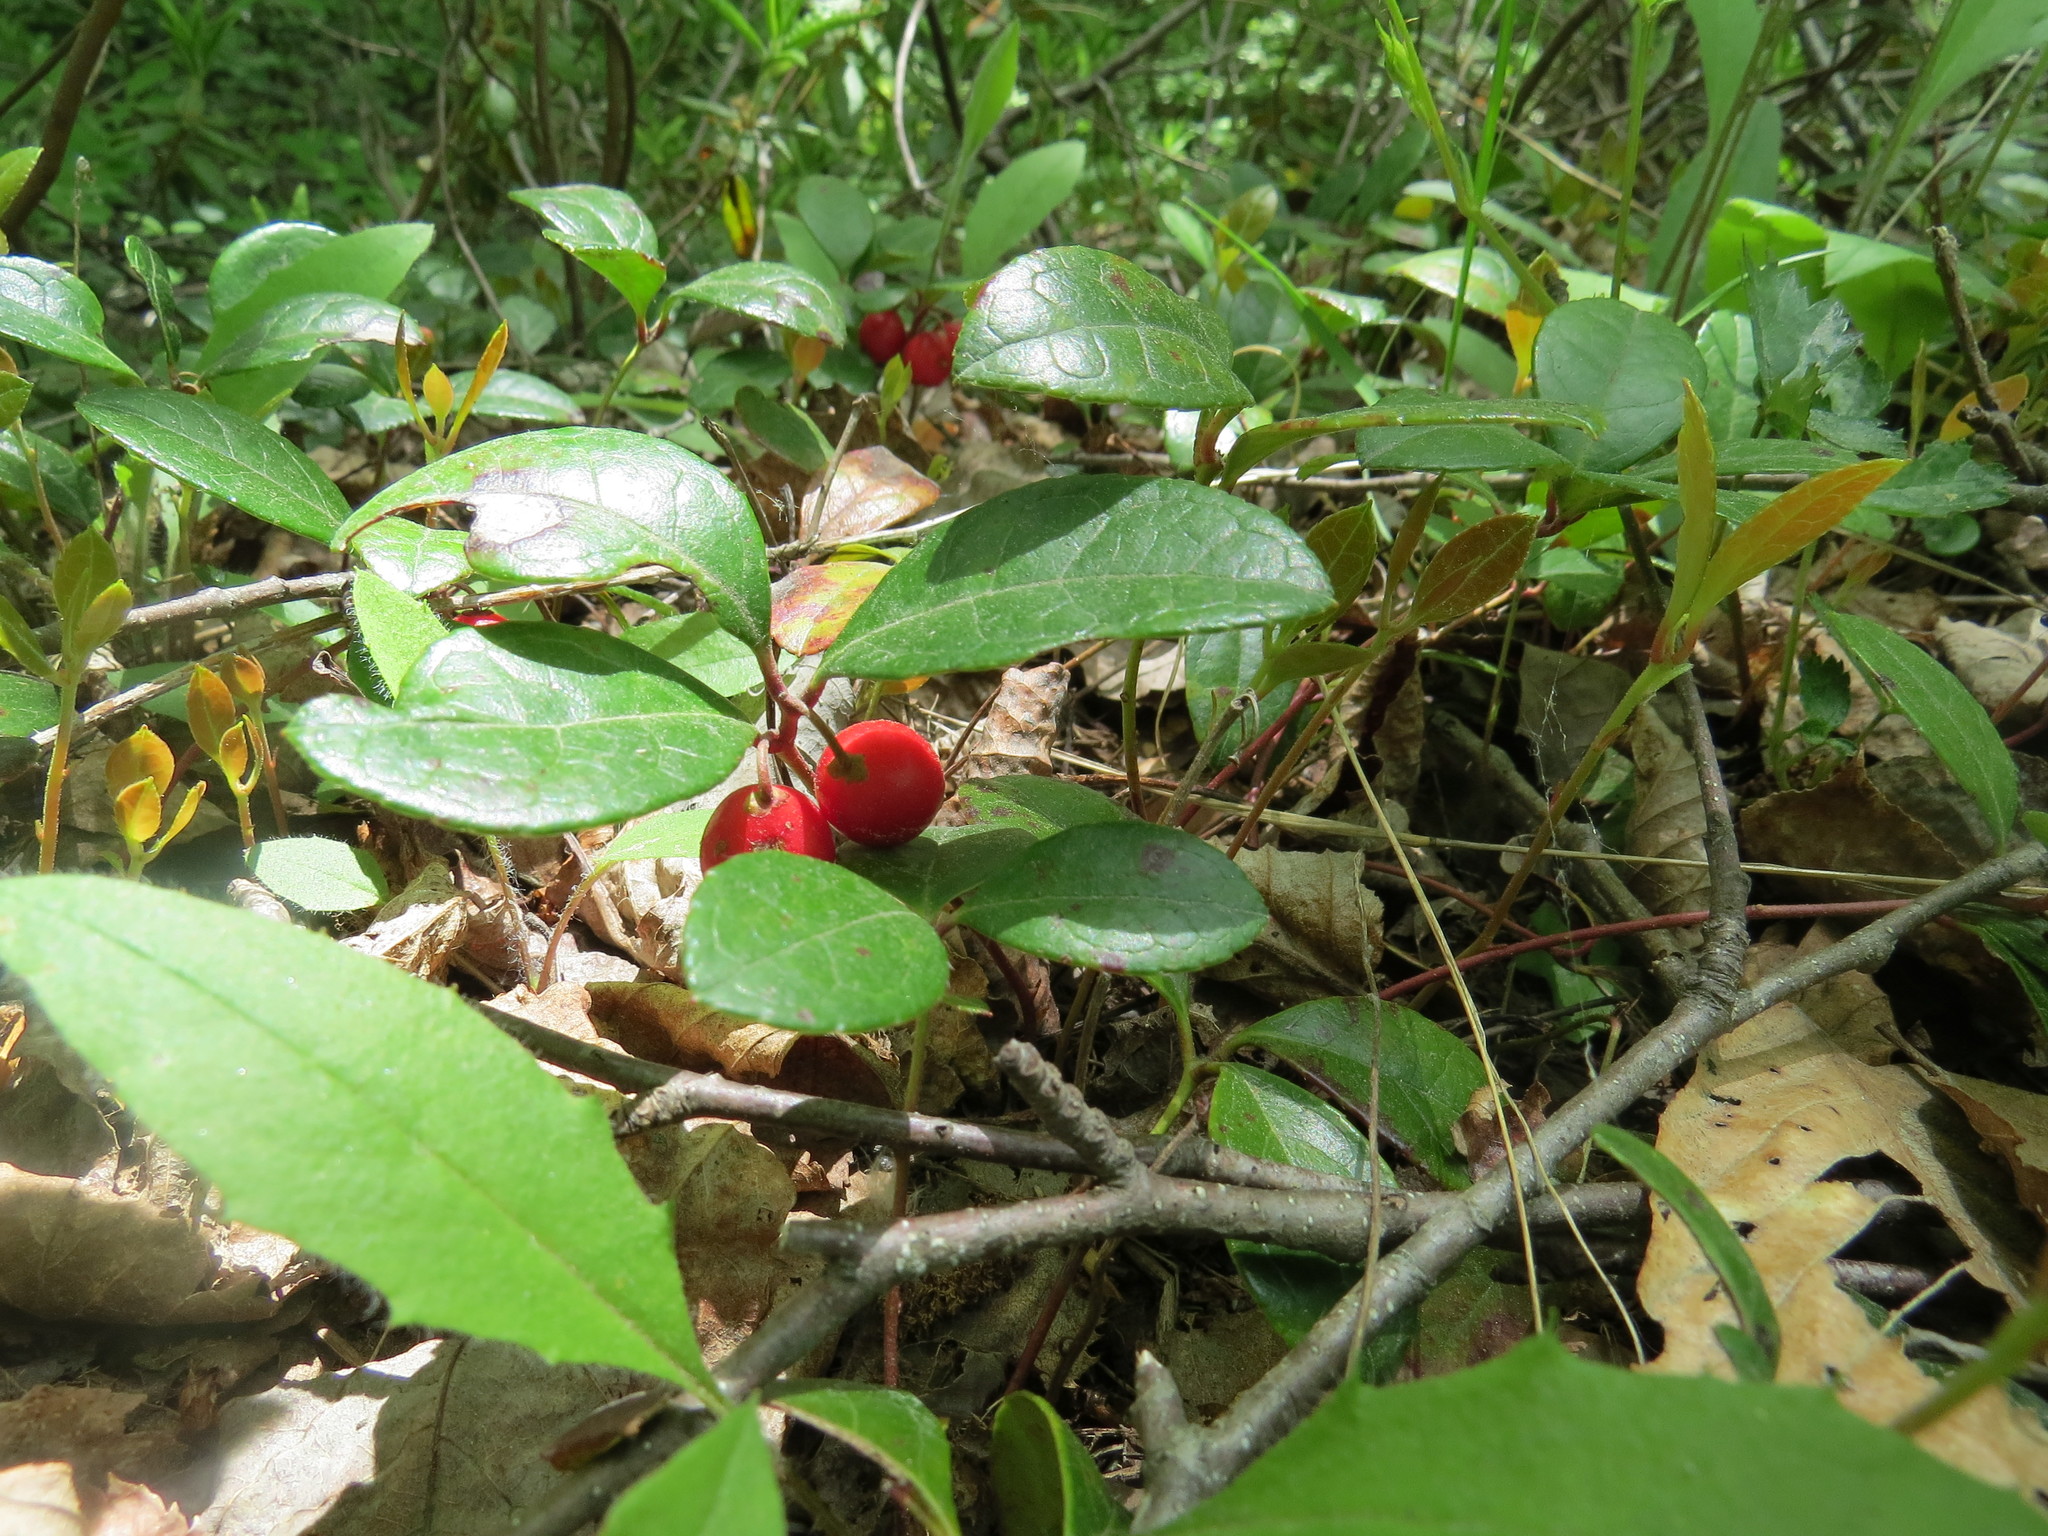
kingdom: Plantae
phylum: Tracheophyta
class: Magnoliopsida
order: Ericales
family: Ericaceae
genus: Gaultheria
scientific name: Gaultheria procumbens
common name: Checkerberry
